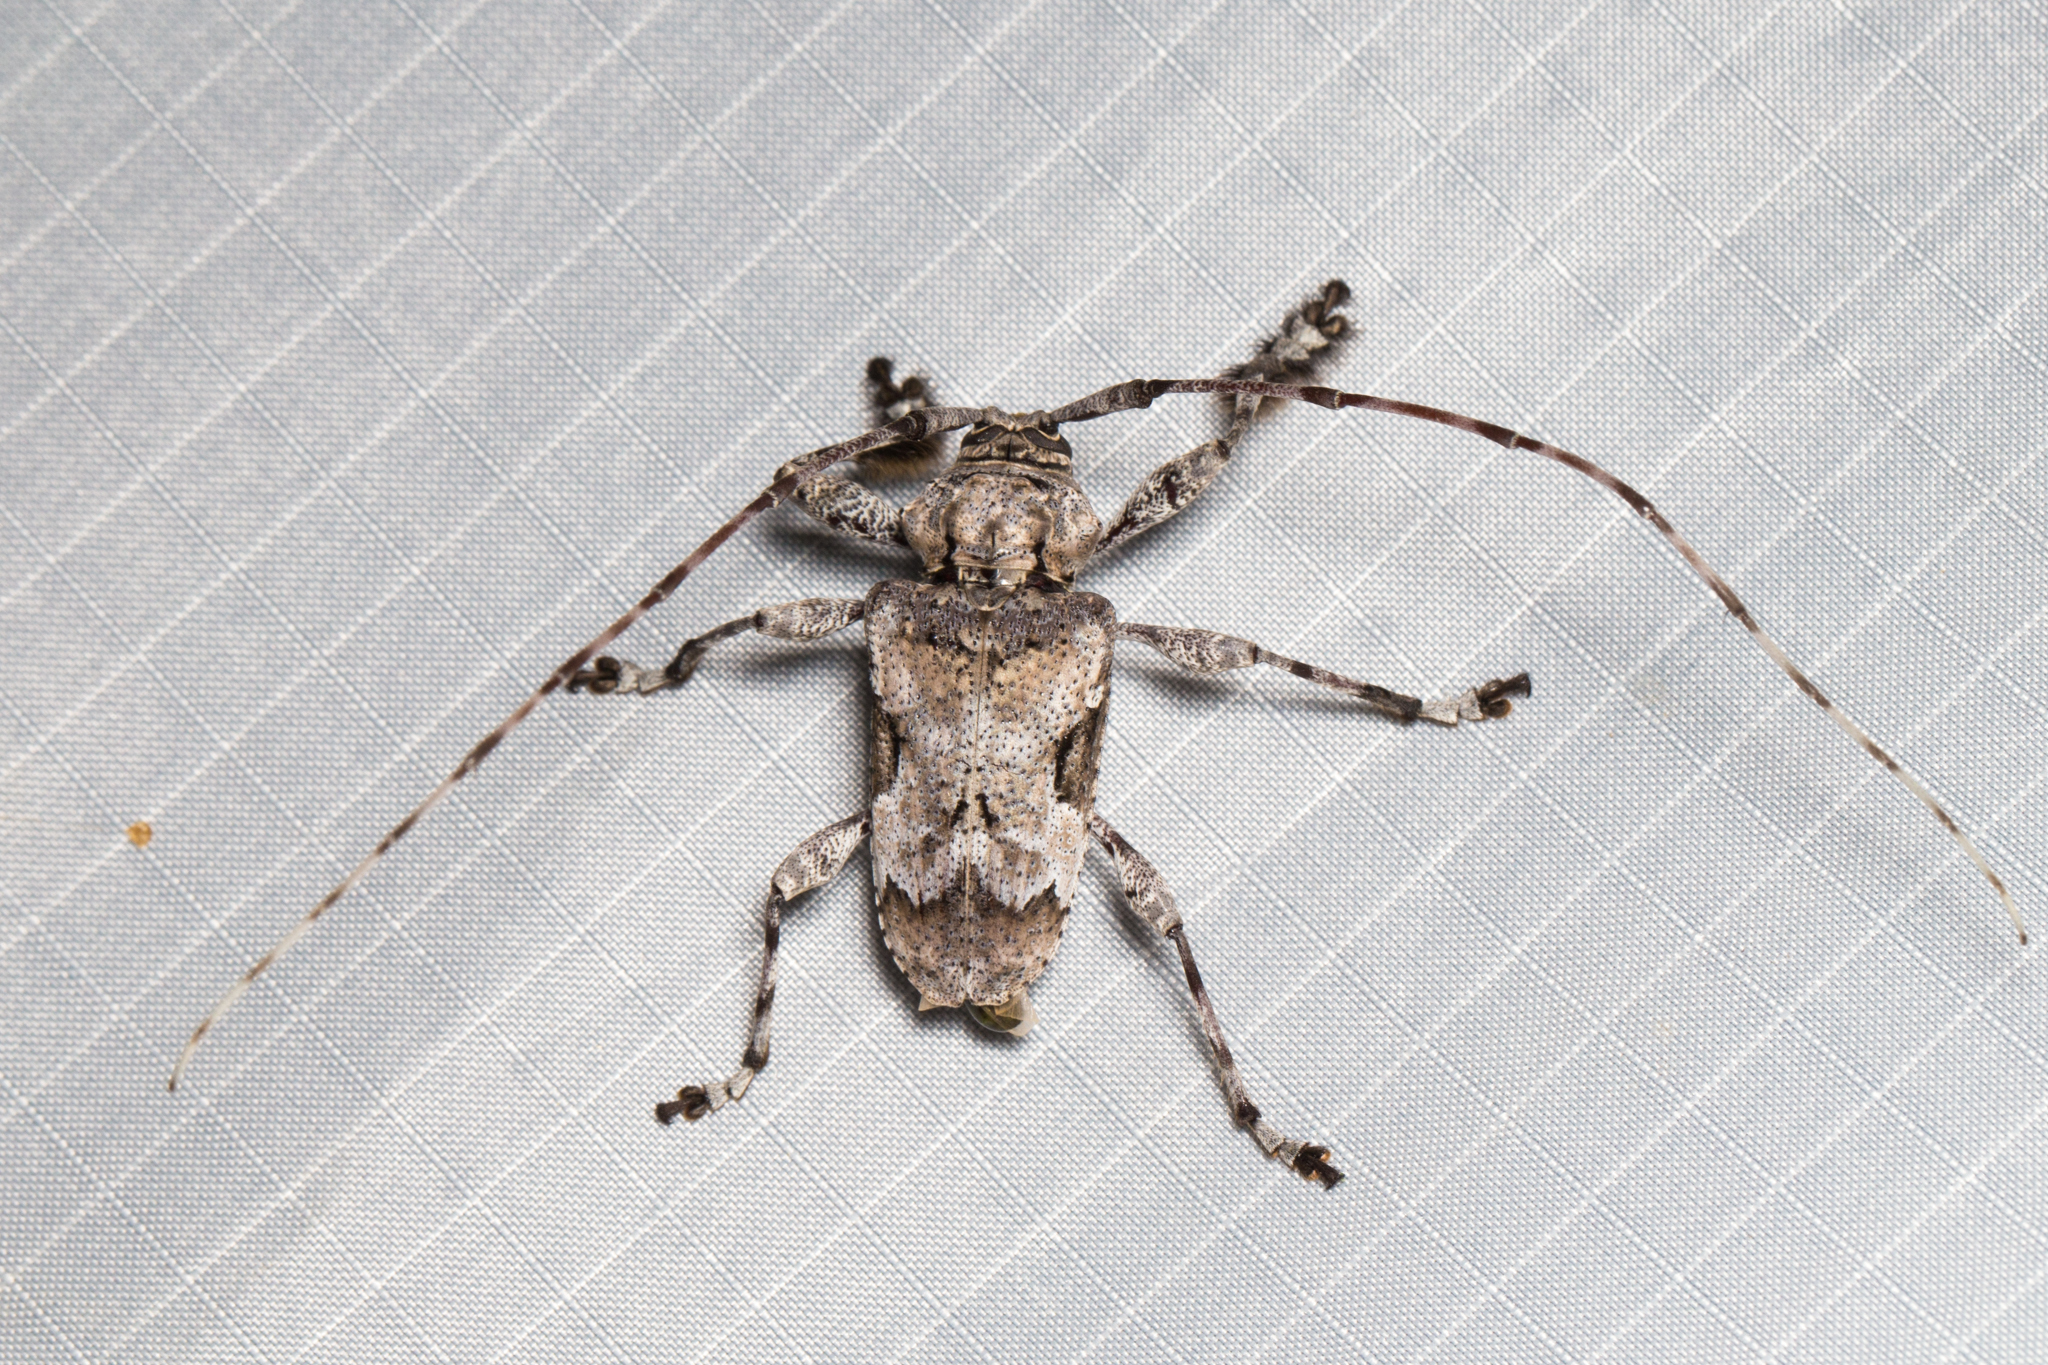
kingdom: Animalia
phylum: Arthropoda
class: Insecta
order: Coleoptera
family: Cerambycidae
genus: Lagocheirus
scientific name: Lagocheirus procerus
